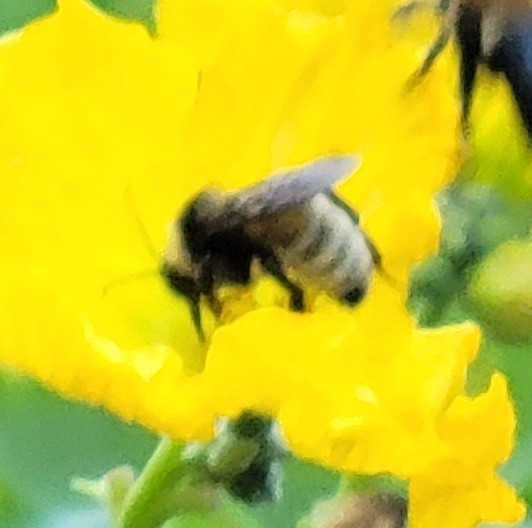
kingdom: Animalia
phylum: Arthropoda
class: Insecta
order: Hymenoptera
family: Apidae
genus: Bombus
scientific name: Bombus pensylvanicus
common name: Bumble bee
